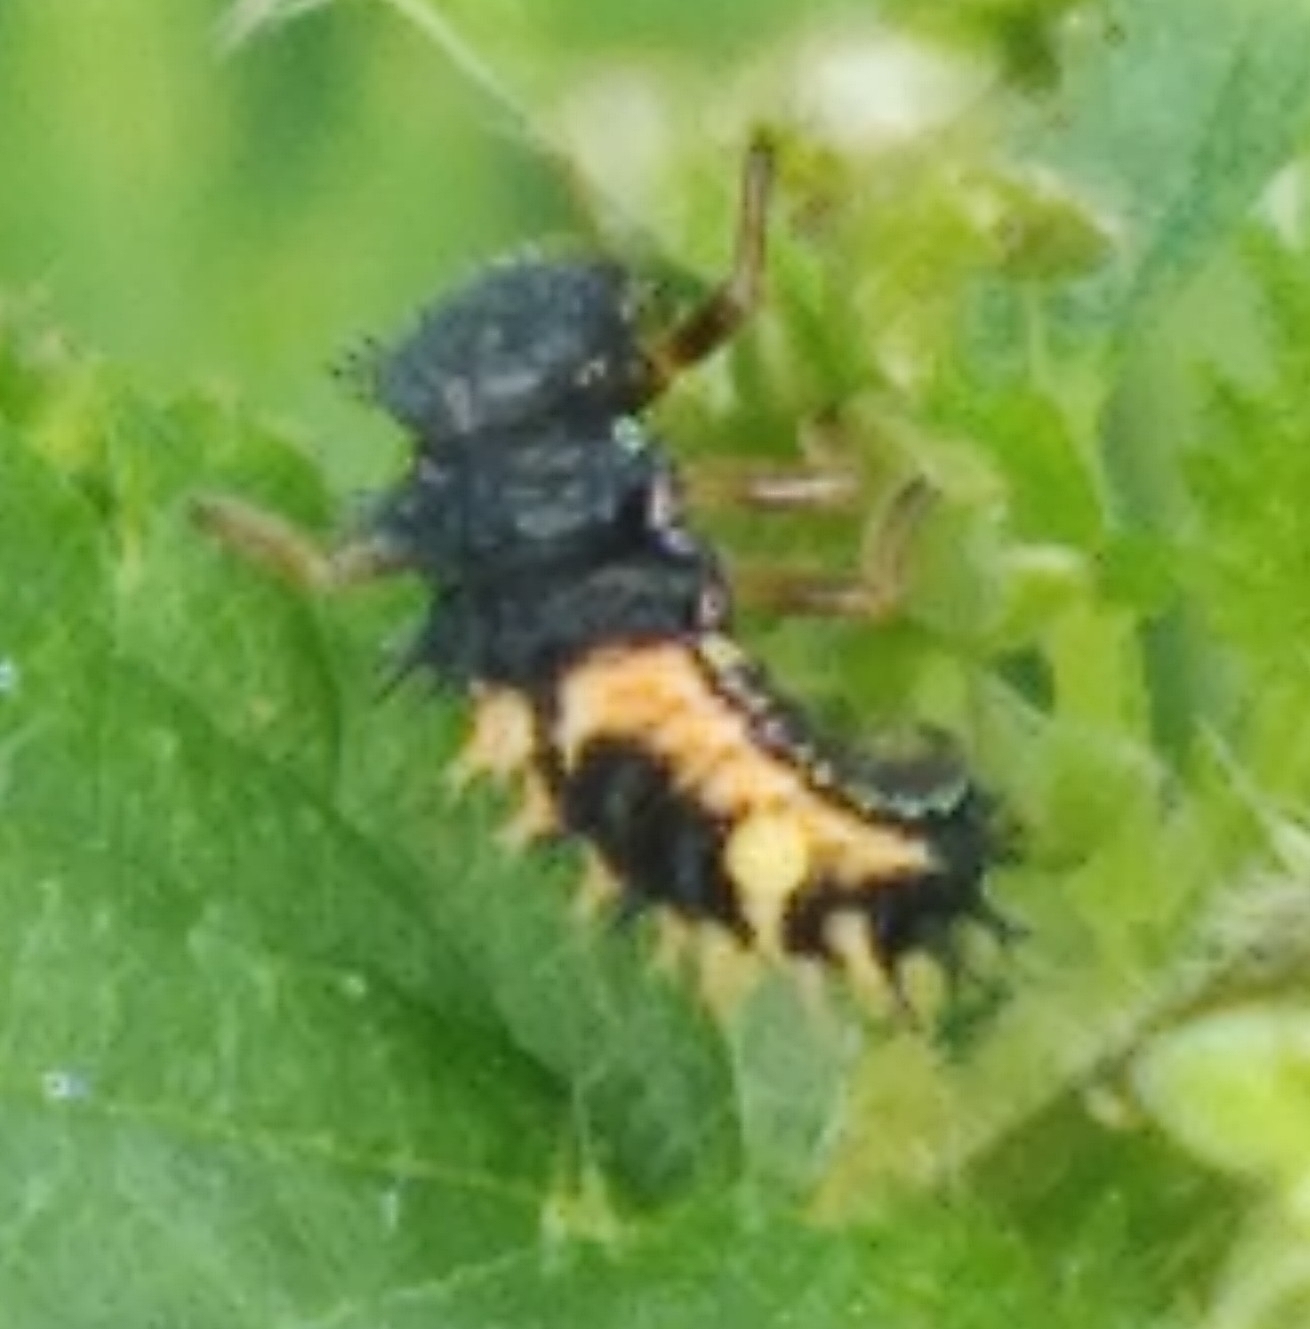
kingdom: Animalia
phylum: Arthropoda
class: Insecta
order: Coleoptera
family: Coccinellidae
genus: Harmonia
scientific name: Harmonia axyridis
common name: Harlequin ladybird
